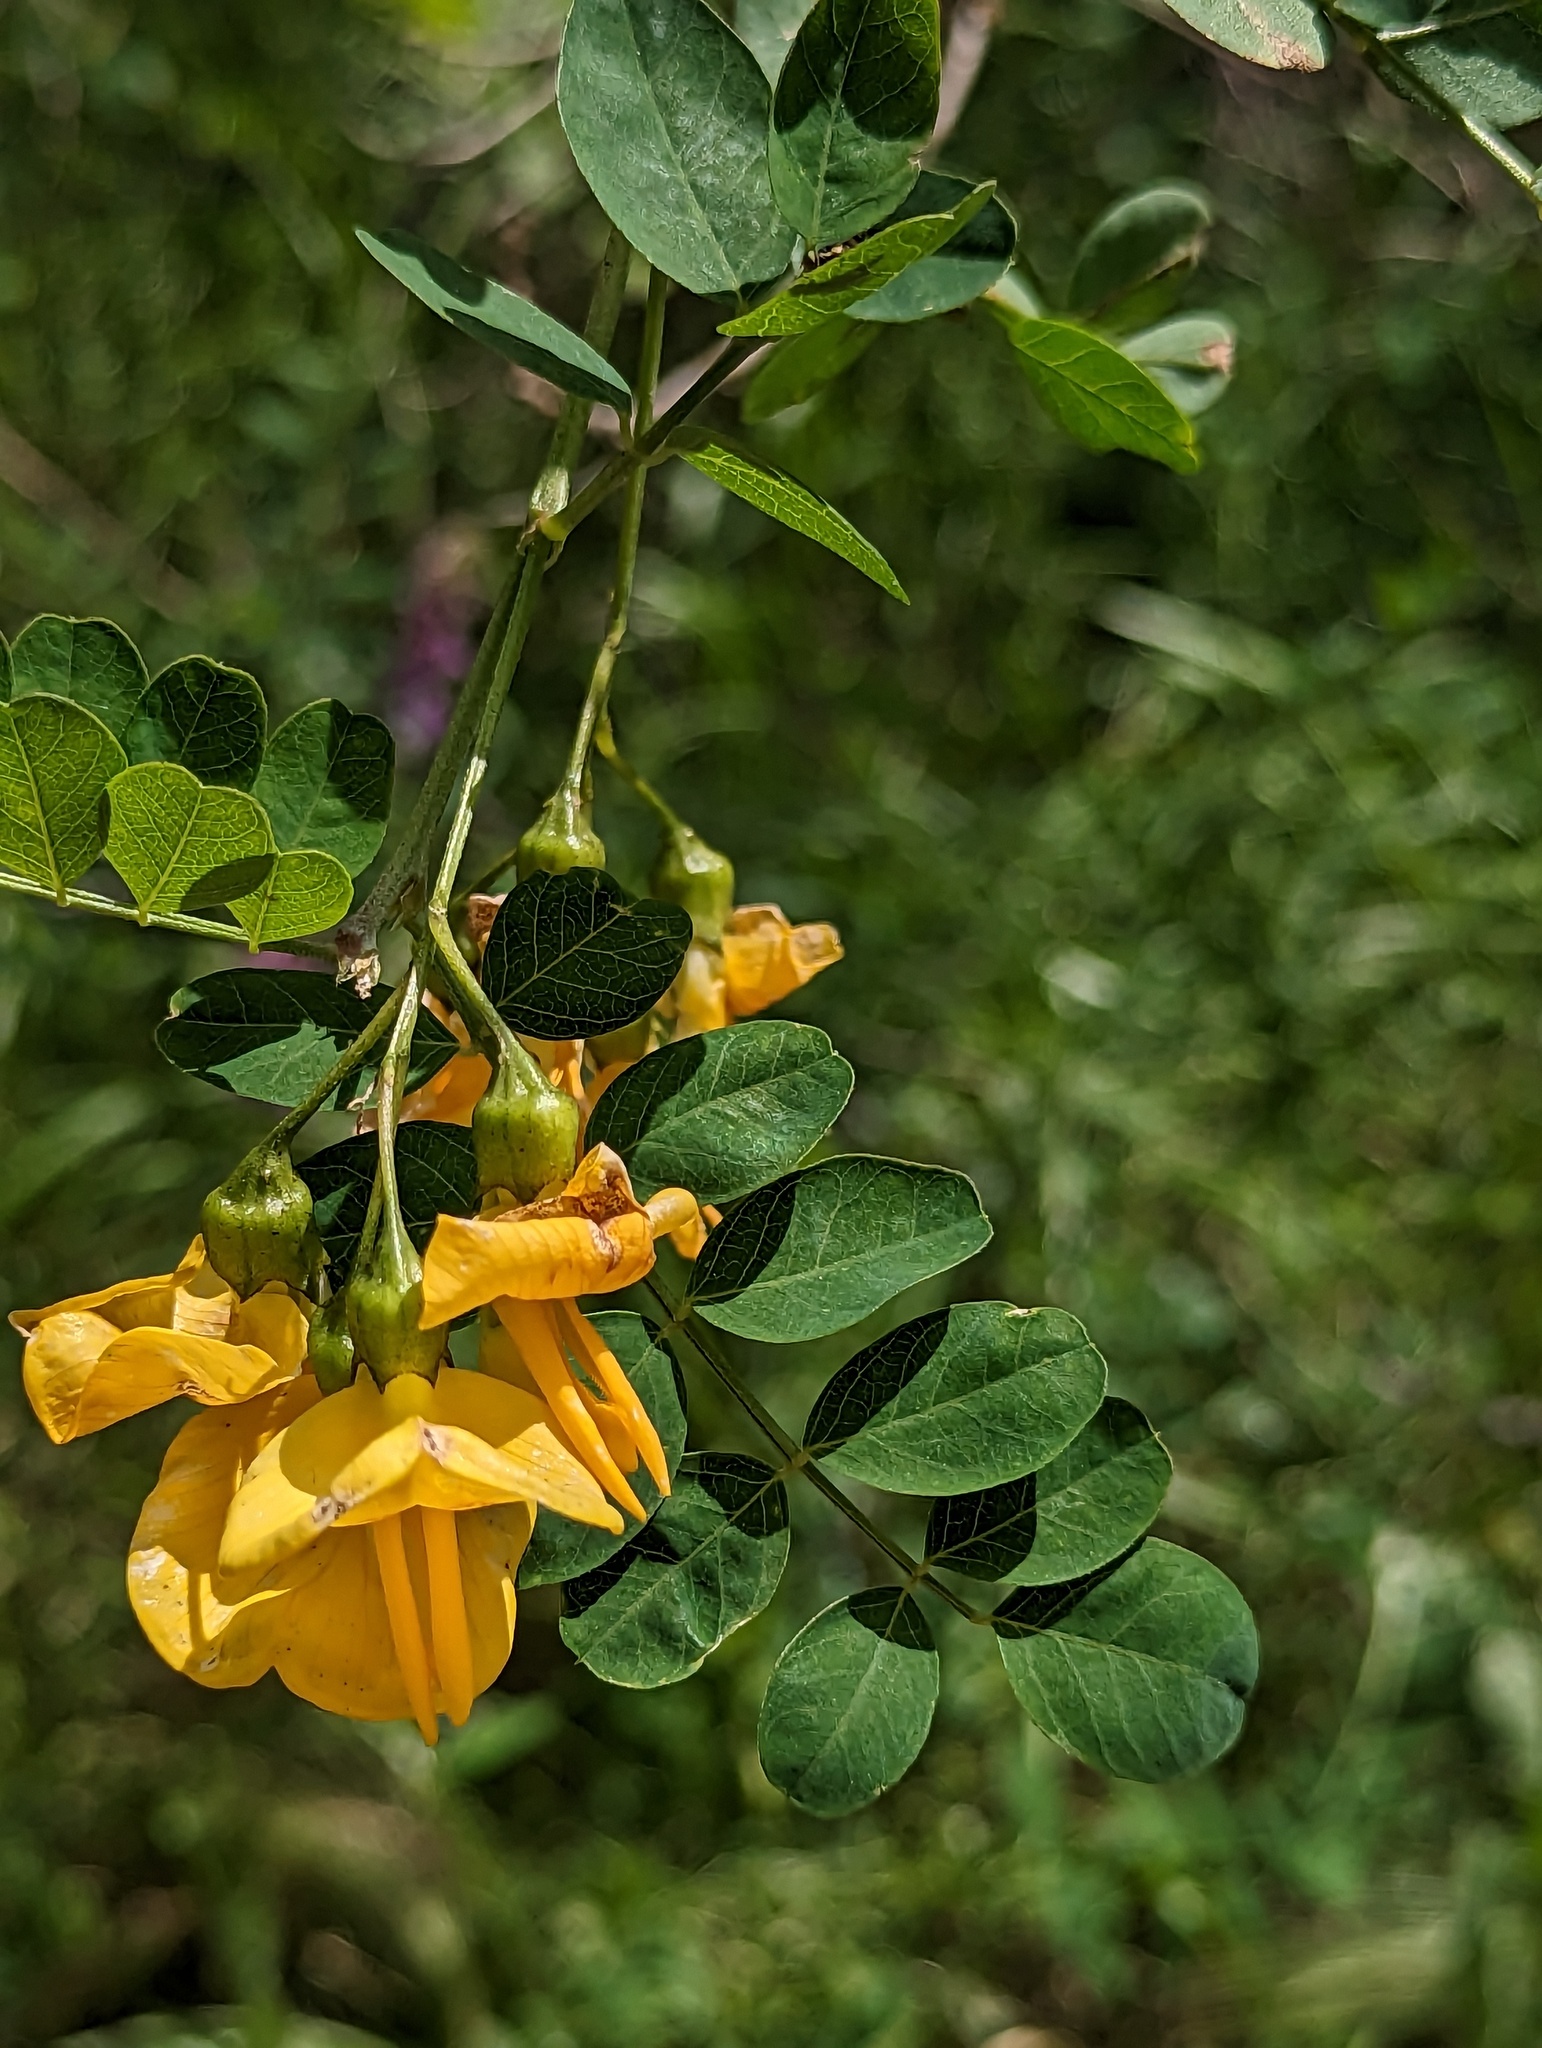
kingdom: Plantae
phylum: Tracheophyta
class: Magnoliopsida
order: Fabales
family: Fabaceae
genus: Colutea
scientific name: Colutea cilicica
